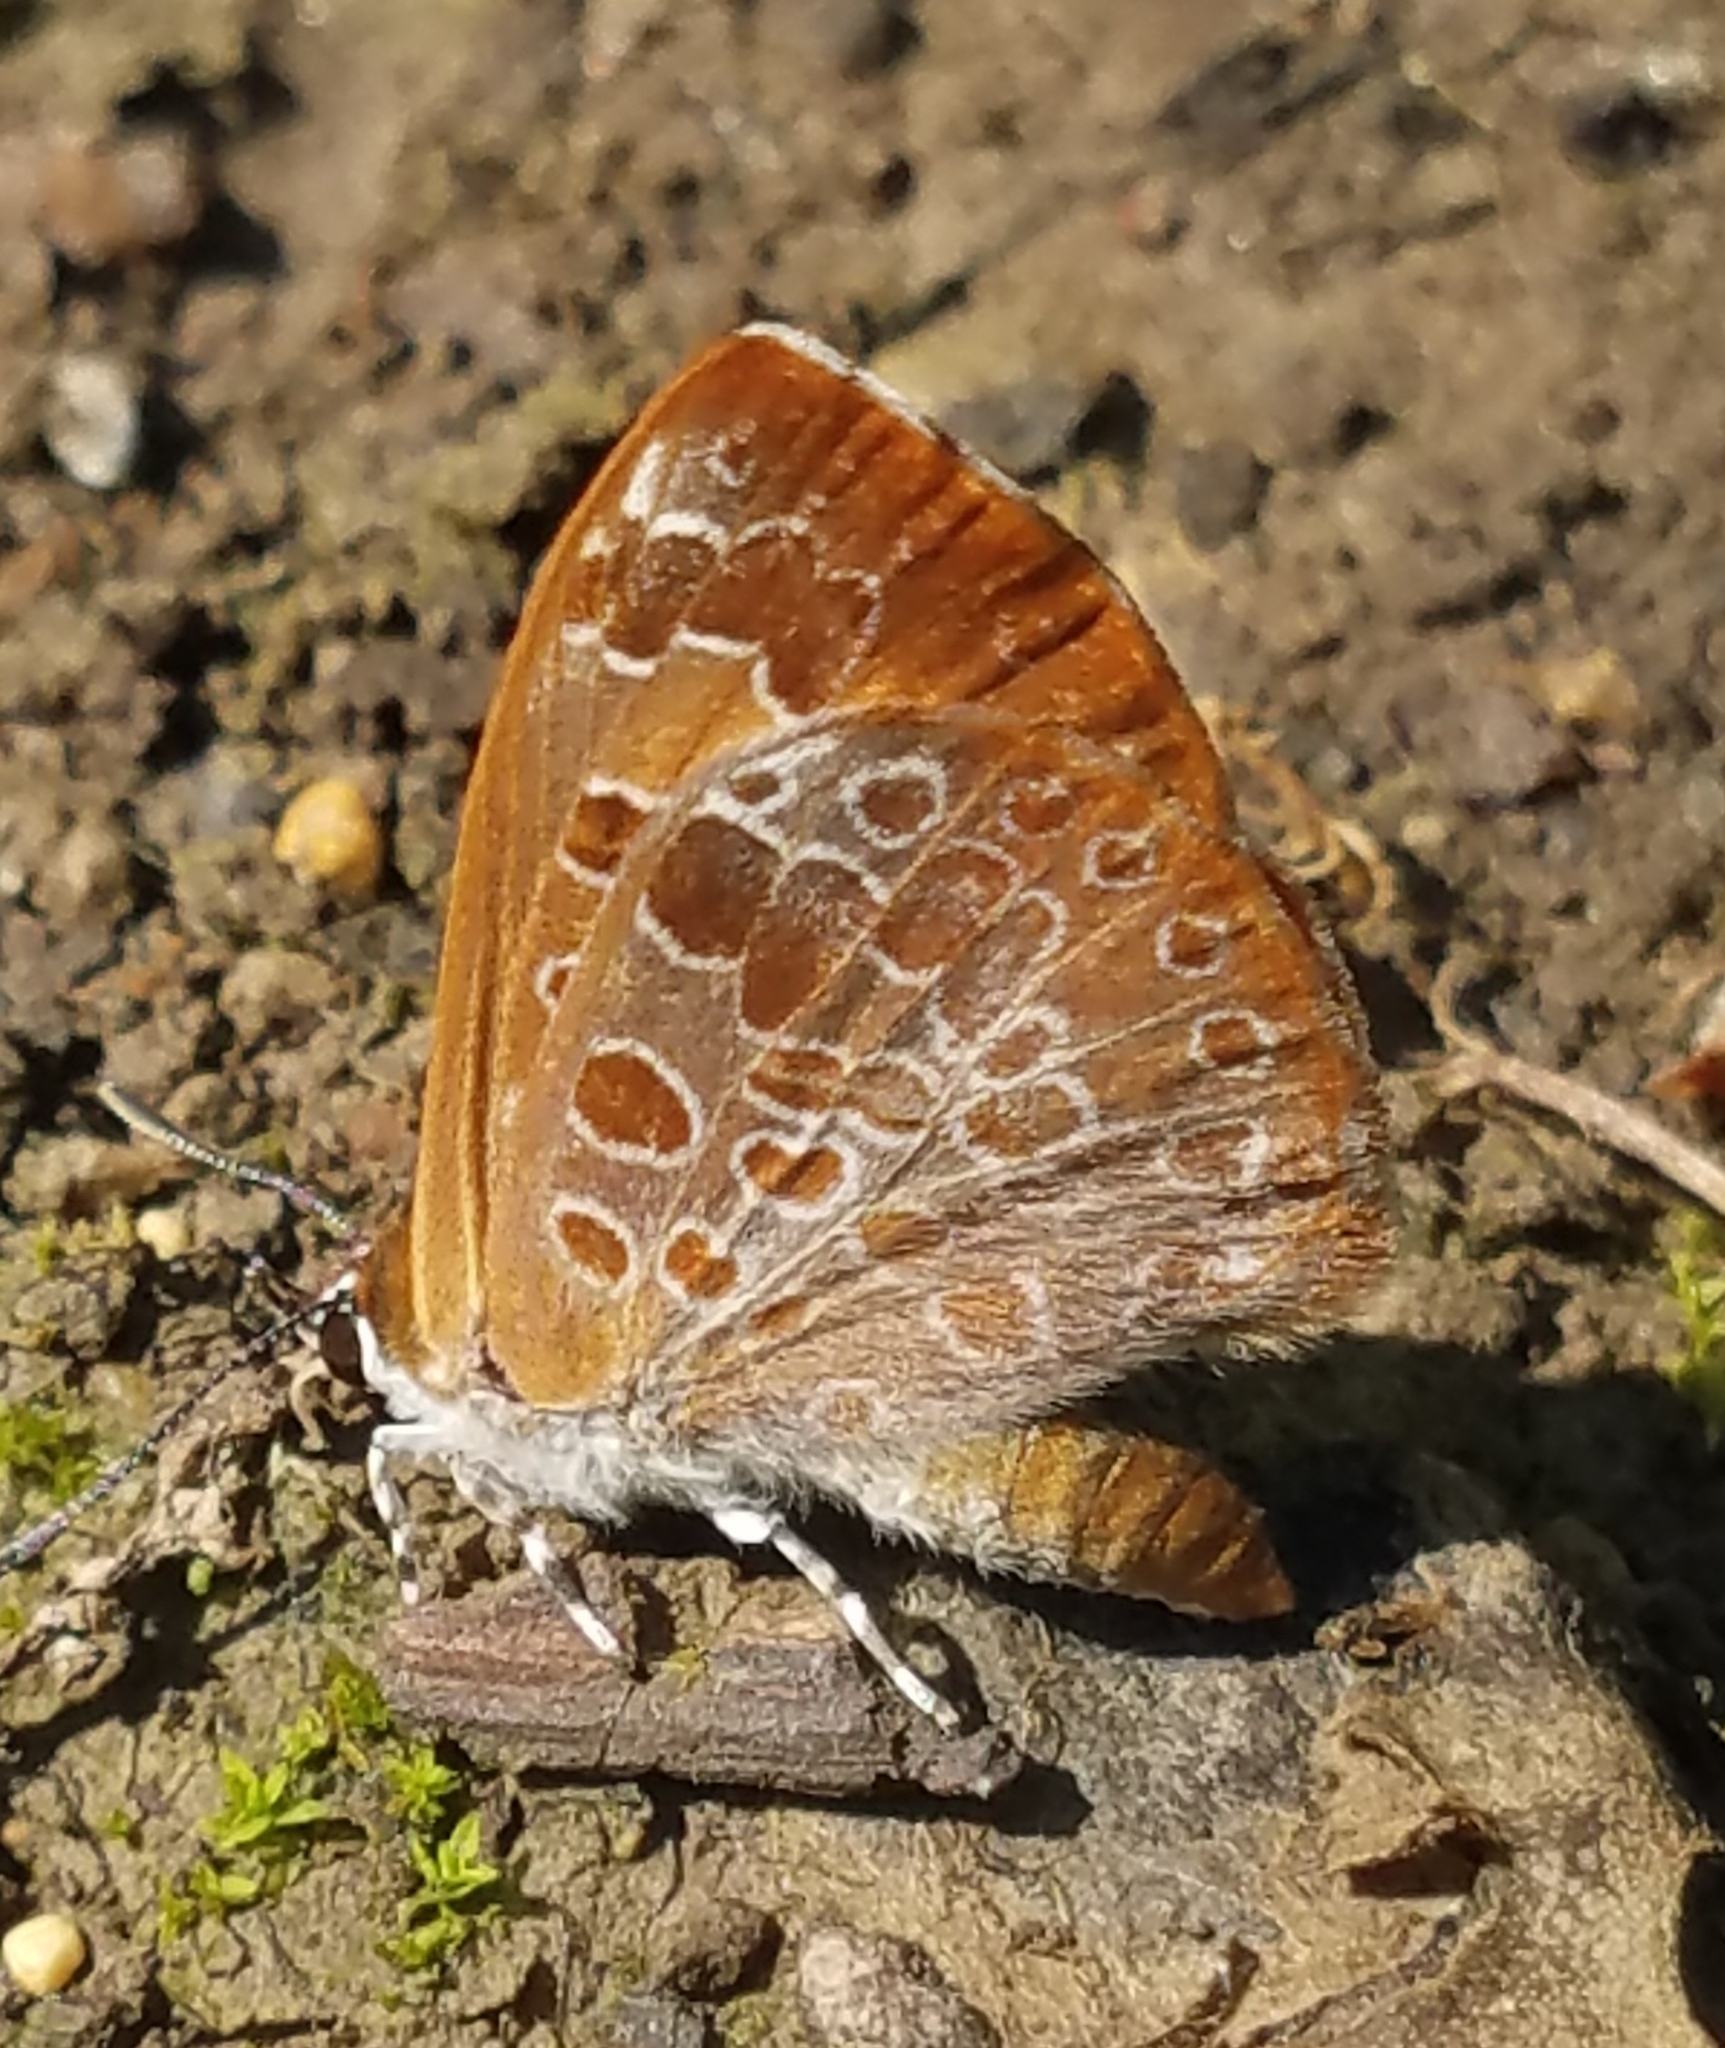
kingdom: Animalia
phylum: Arthropoda
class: Insecta
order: Lepidoptera
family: Lycaenidae
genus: Feniseca
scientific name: Feniseca tarquinius
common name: Harvester
